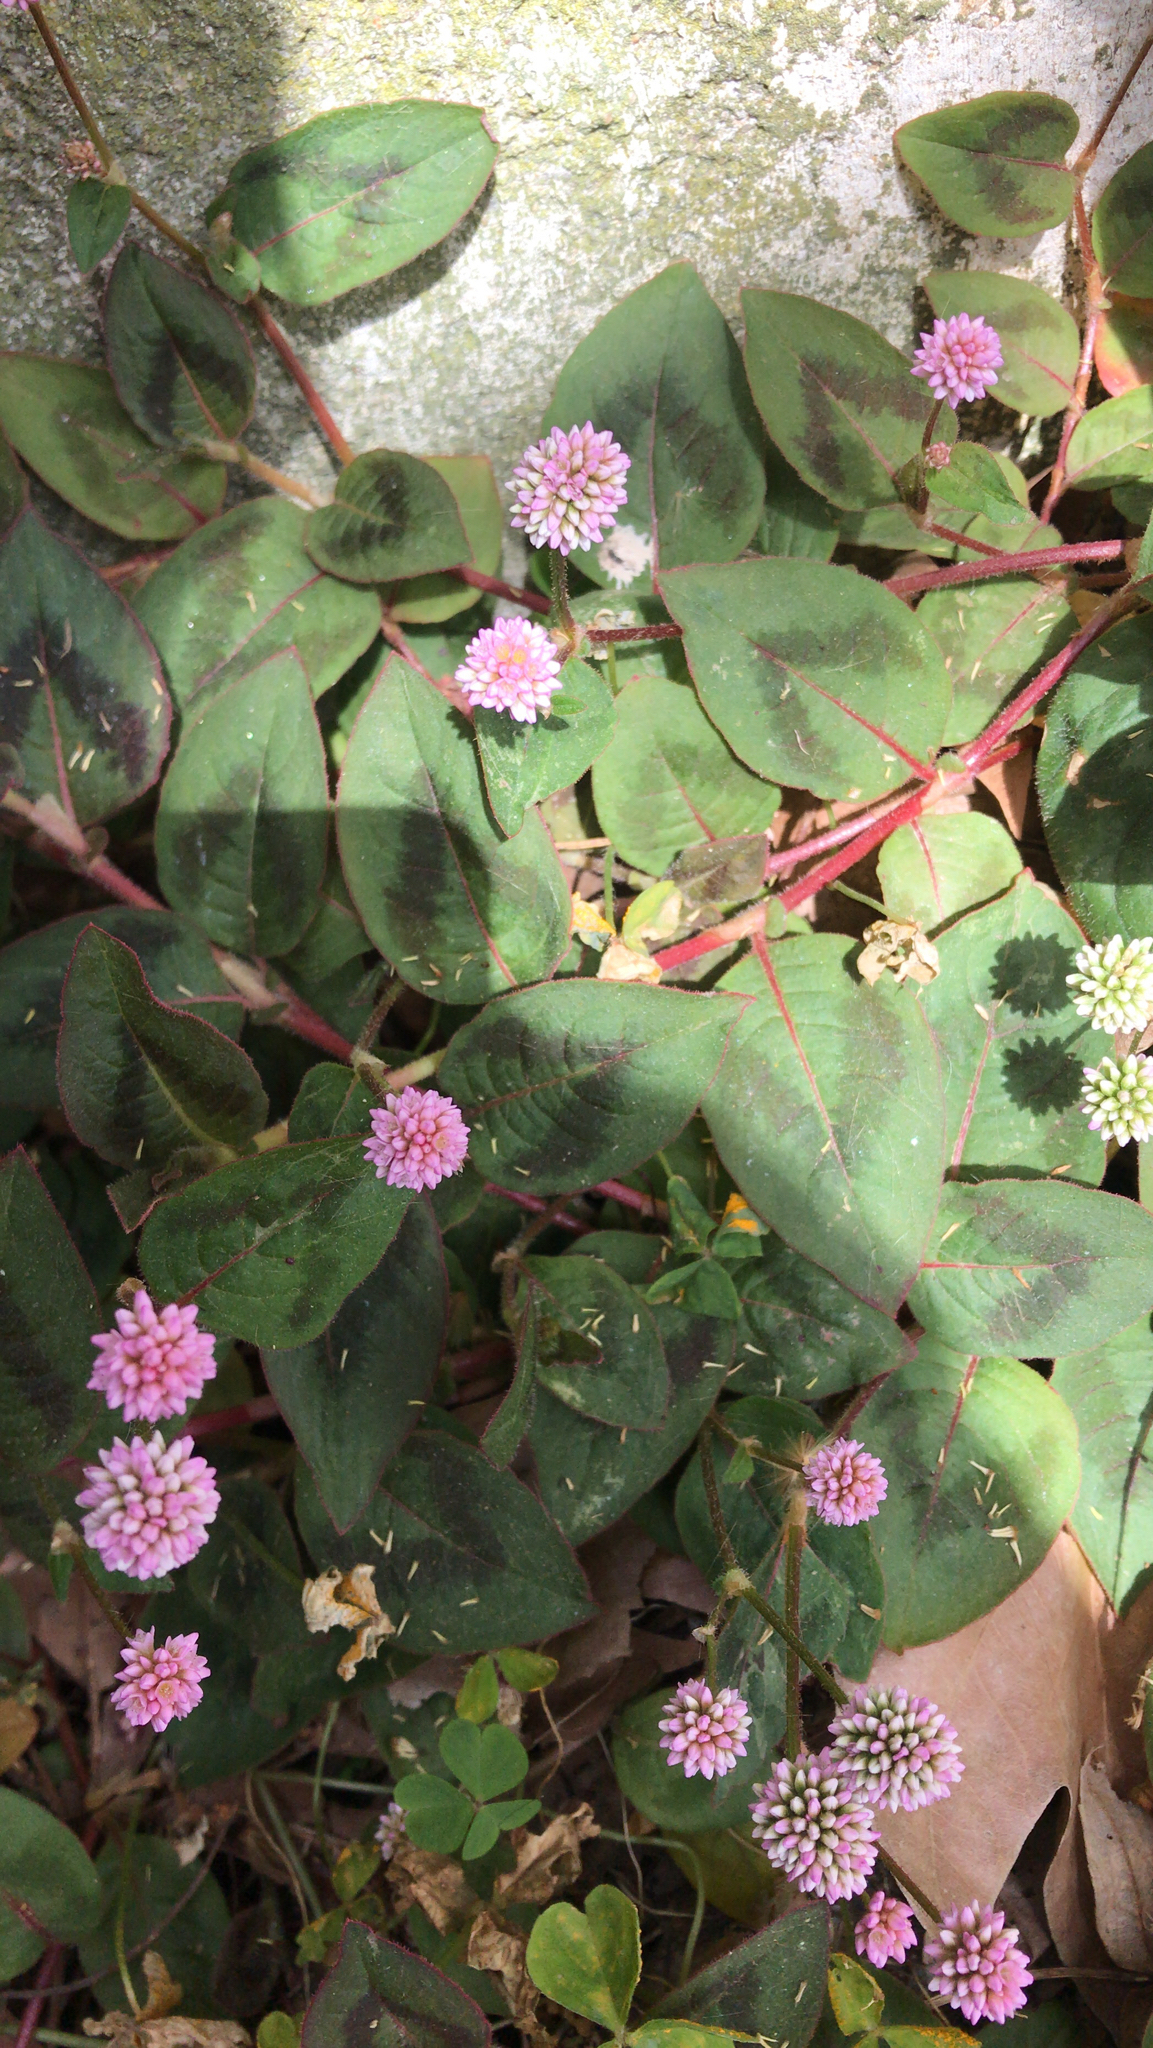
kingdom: Plantae
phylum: Tracheophyta
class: Magnoliopsida
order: Caryophyllales
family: Polygonaceae
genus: Persicaria
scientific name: Persicaria capitata
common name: Pinkhead smartweed
